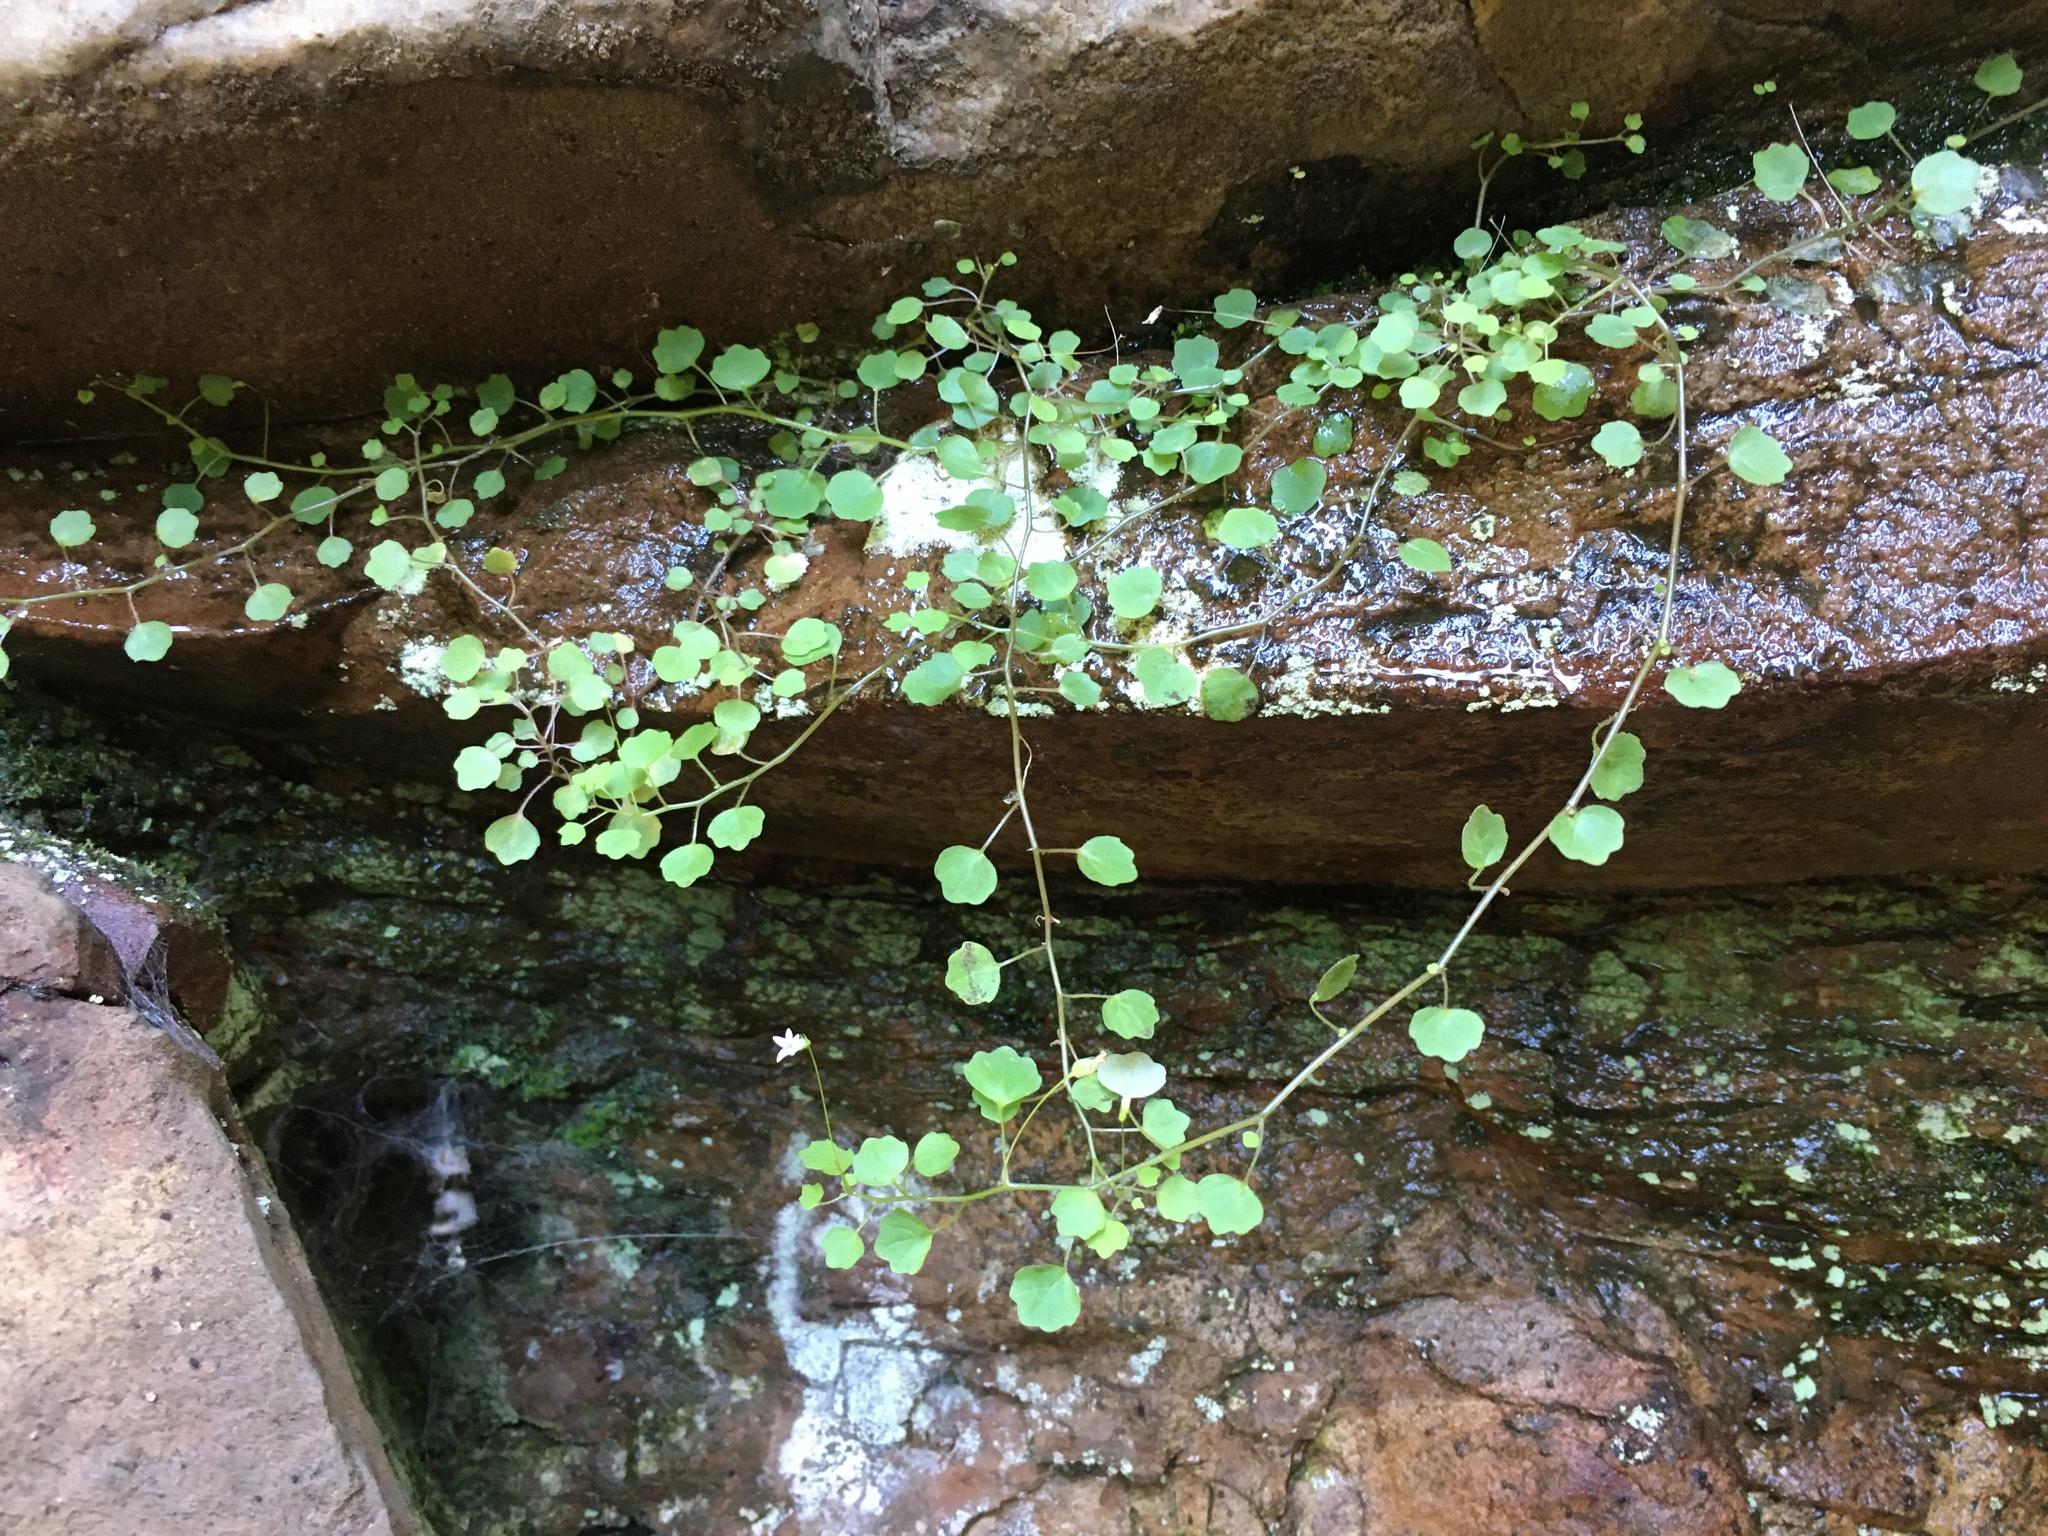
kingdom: Plantae
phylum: Tracheophyta
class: Magnoliopsida
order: Asterales
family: Campanulaceae
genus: Wimmerella
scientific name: Wimmerella pygmaea
